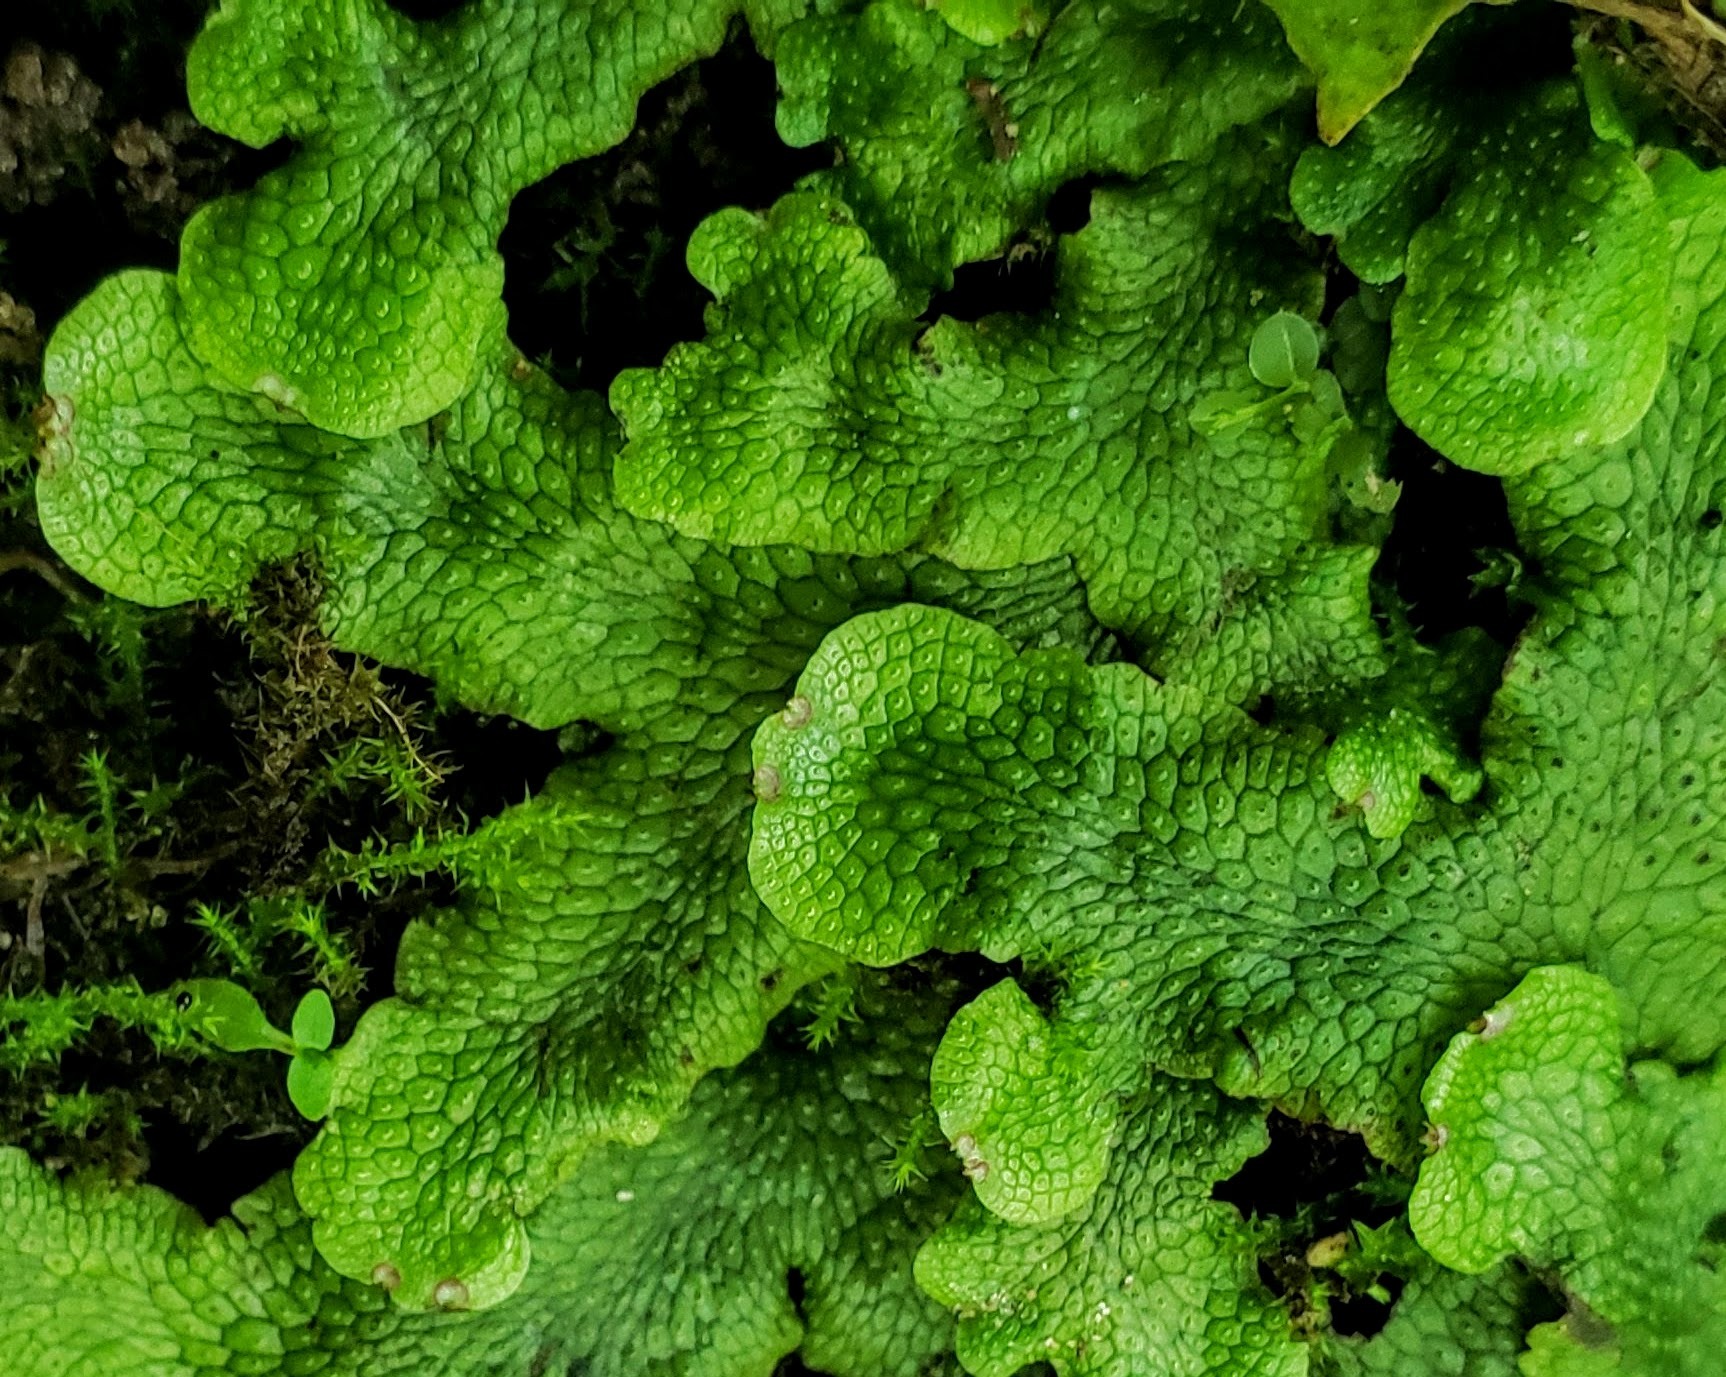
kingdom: Plantae
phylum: Marchantiophyta
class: Marchantiopsida
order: Marchantiales
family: Conocephalaceae
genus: Conocephalum
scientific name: Conocephalum salebrosum
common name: Cat-tongue liverwort
